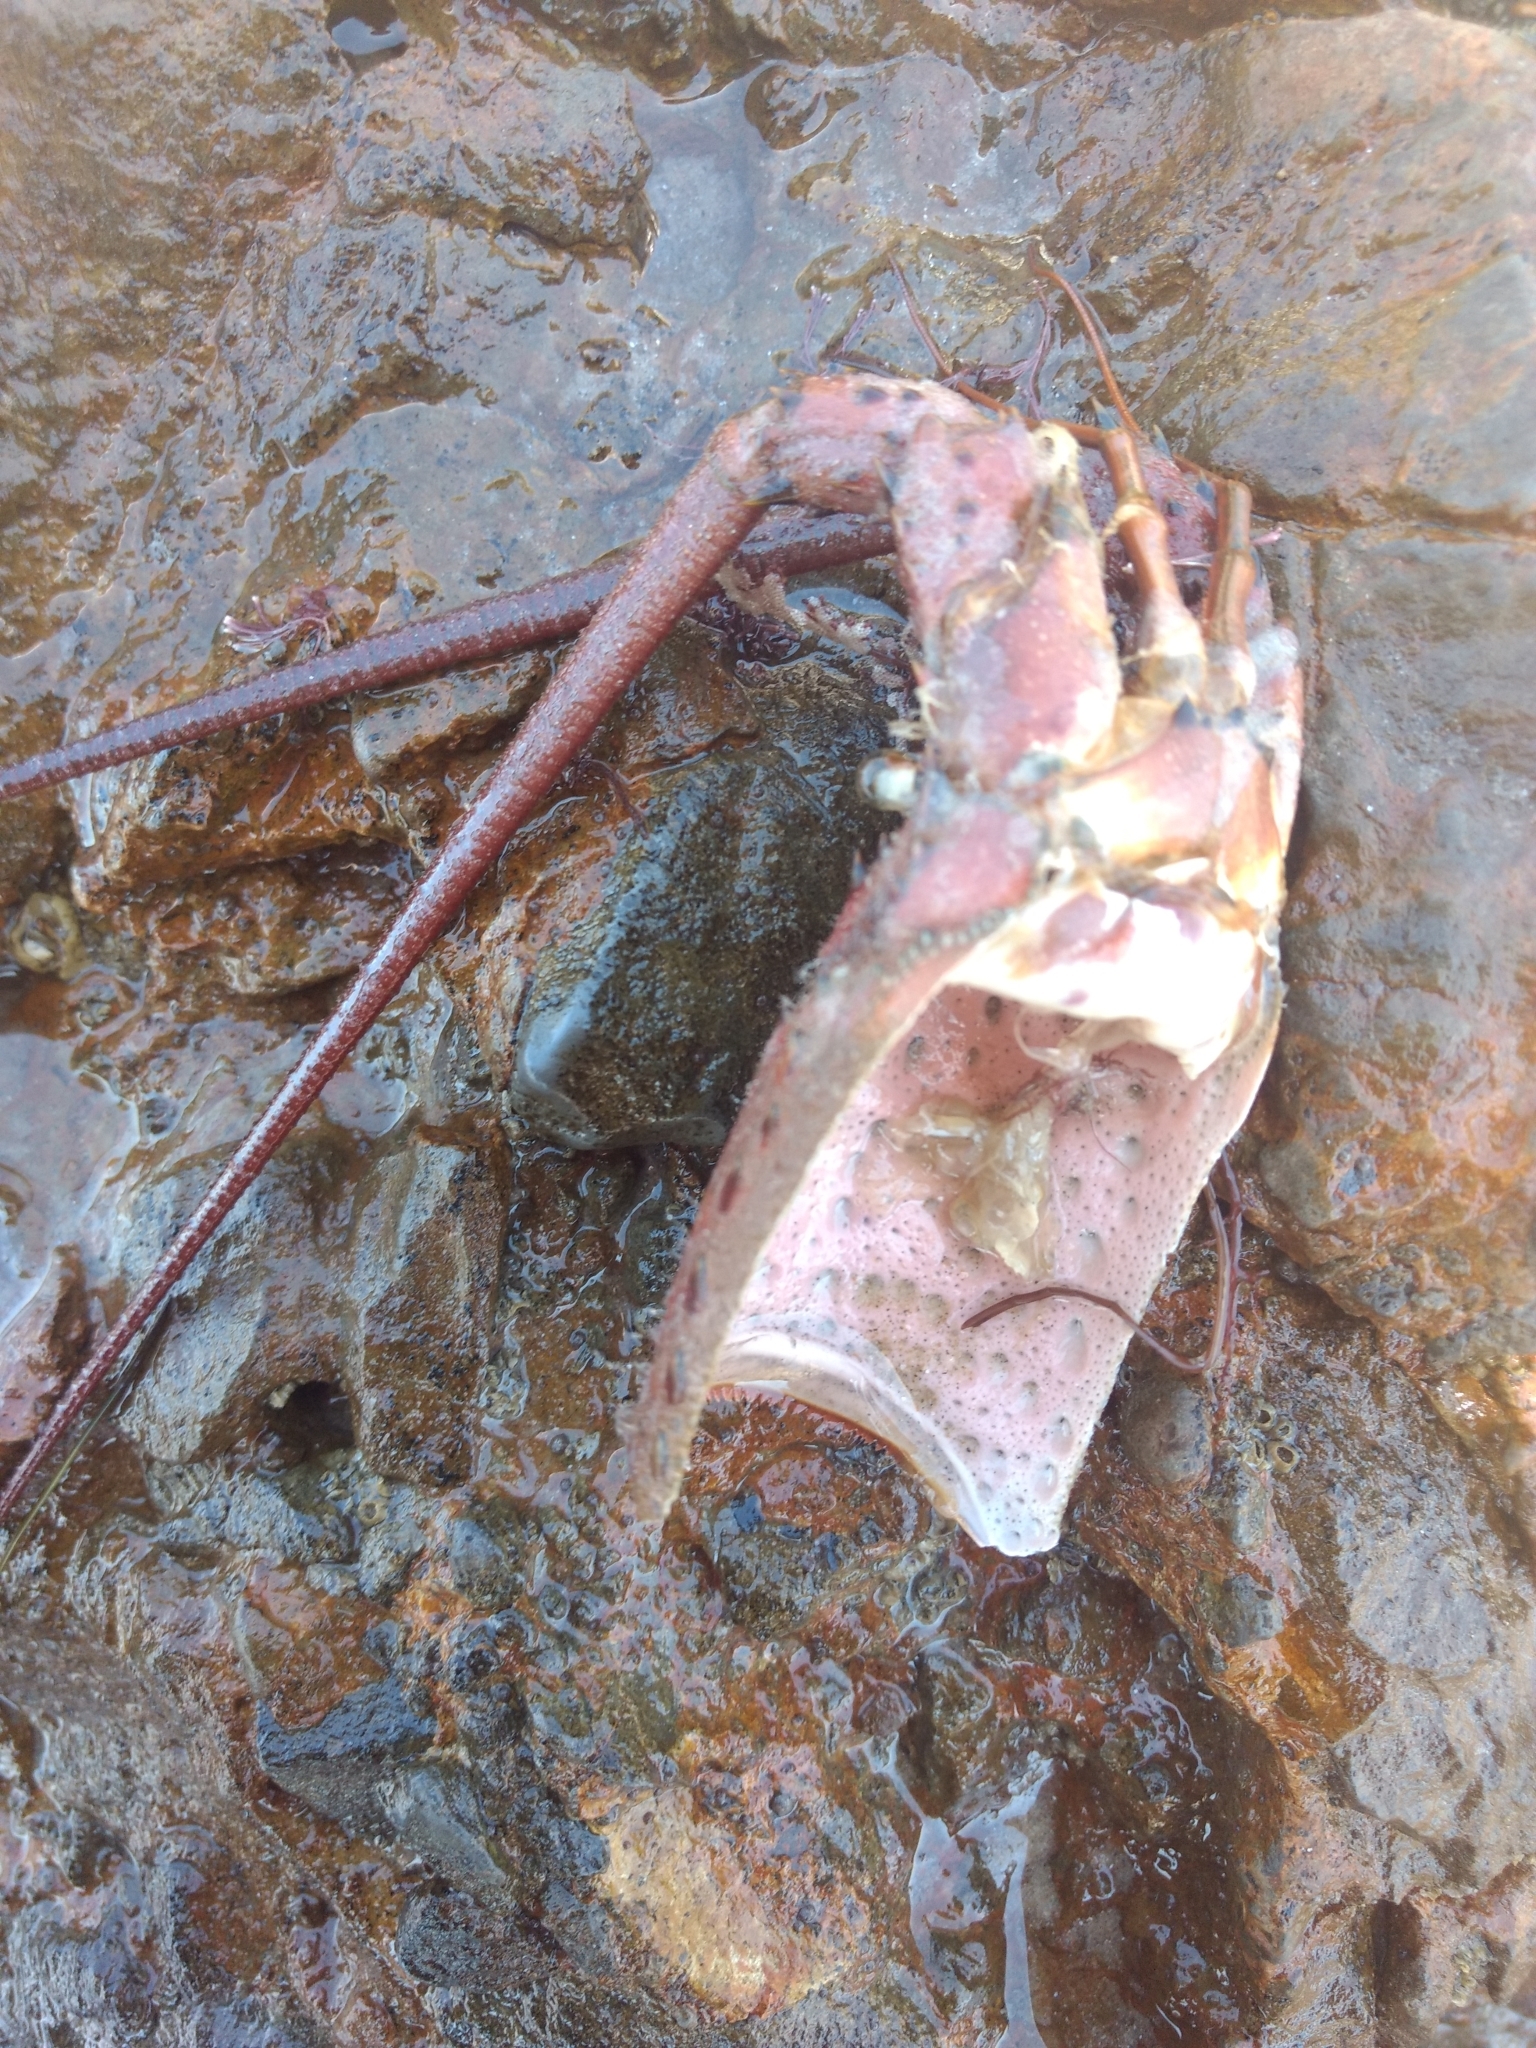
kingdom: Animalia
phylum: Arthropoda
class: Malacostraca
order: Decapoda
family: Palinuridae
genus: Panulirus
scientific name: Panulirus interruptus
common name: California spiny lobster
